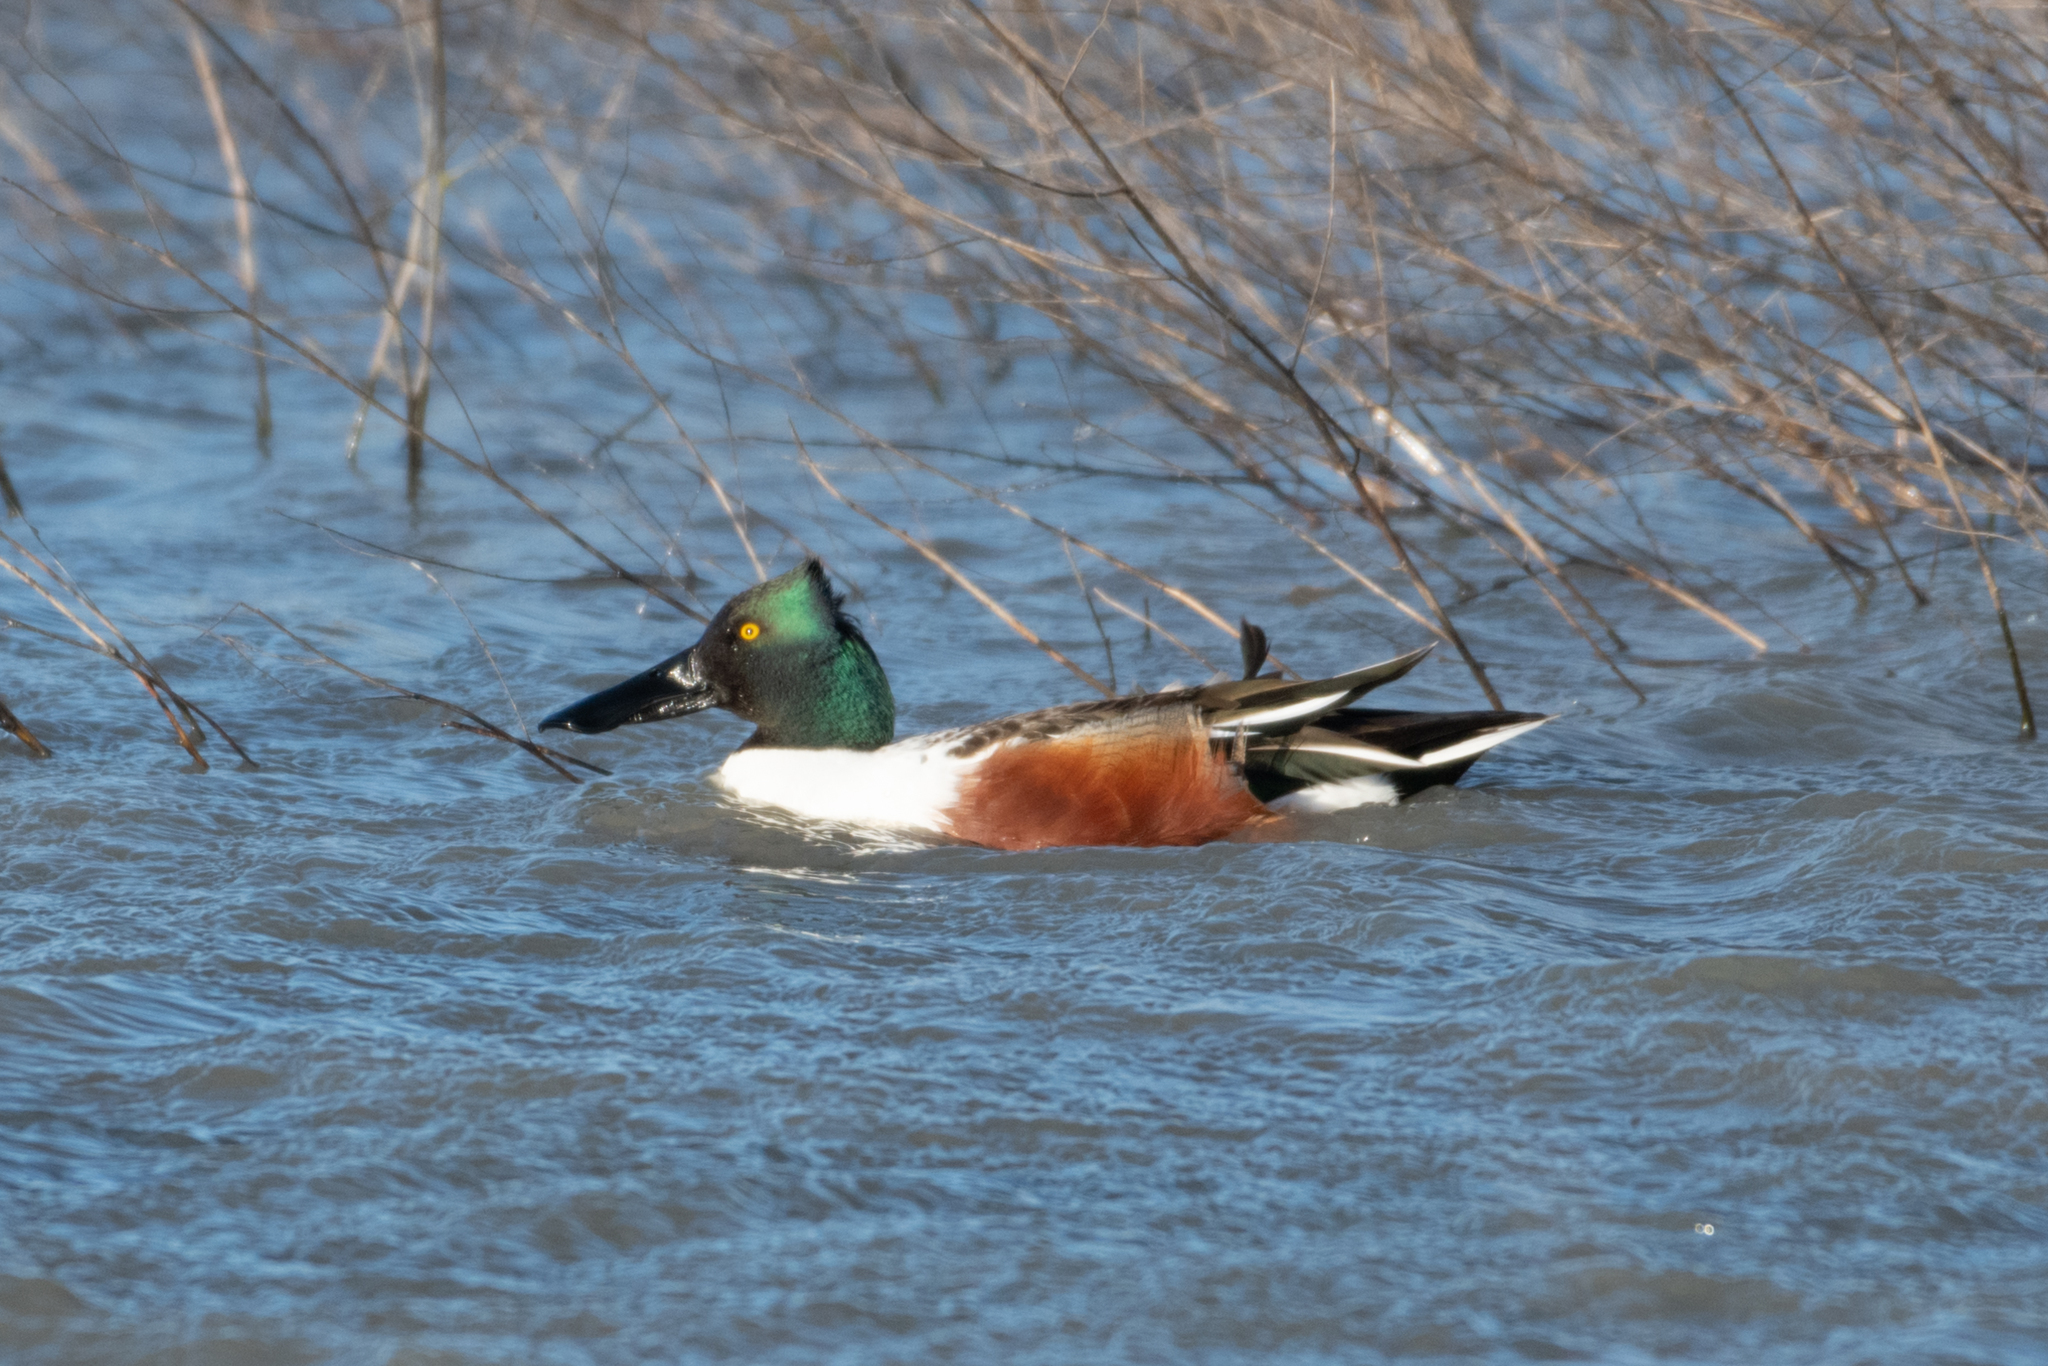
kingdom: Animalia
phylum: Chordata
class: Aves
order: Anseriformes
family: Anatidae
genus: Spatula
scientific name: Spatula clypeata
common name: Northern shoveler
